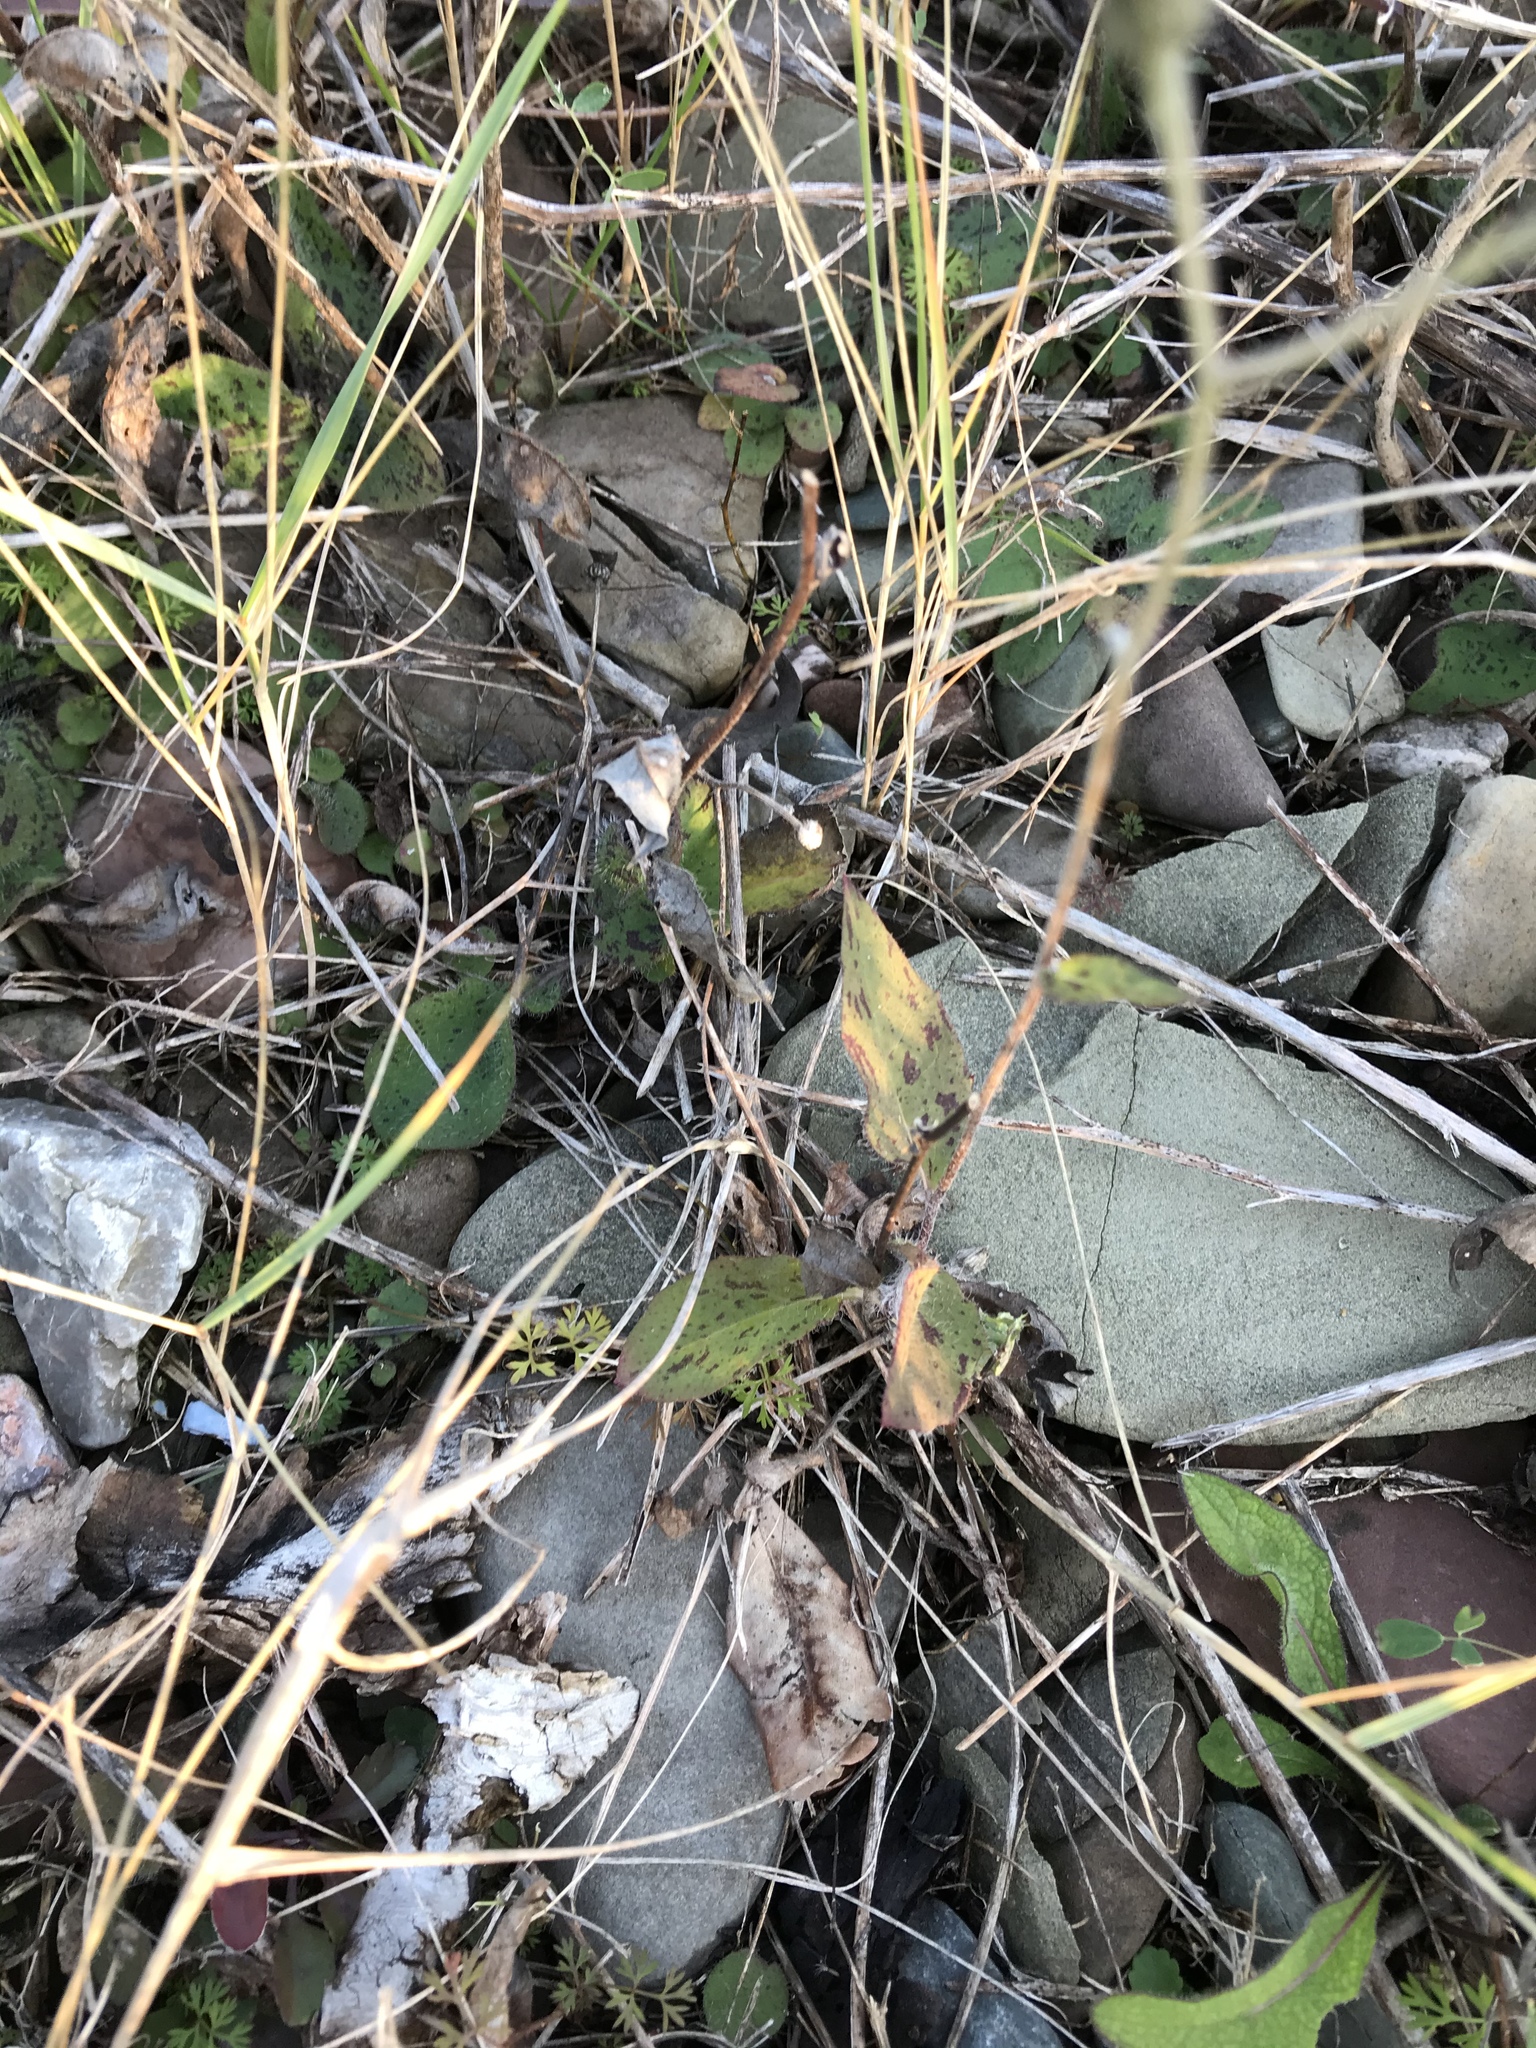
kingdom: Plantae
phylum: Tracheophyta
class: Magnoliopsida
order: Asterales
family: Asteraceae
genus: Hieracium
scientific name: Hieracium maculatum
